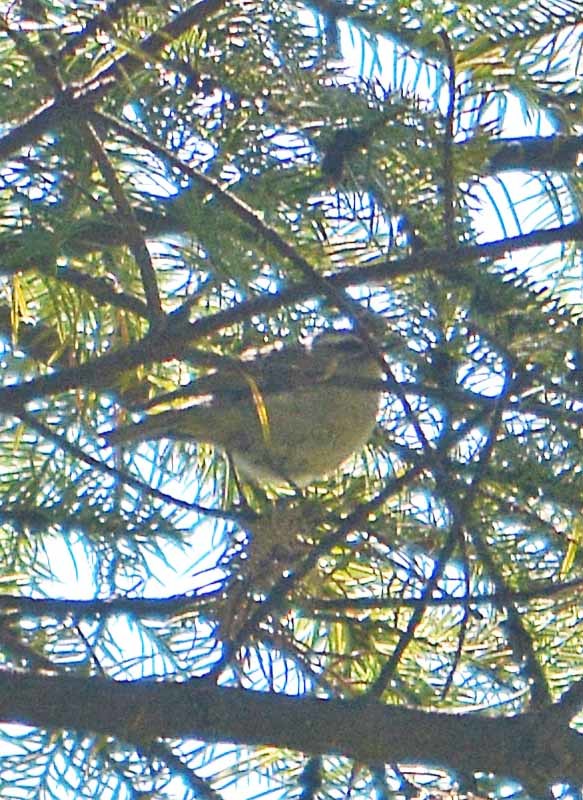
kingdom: Animalia
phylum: Chordata
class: Aves
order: Passeriformes
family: Regulidae
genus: Regulus
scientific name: Regulus satrapa
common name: Golden-crowned kinglet
